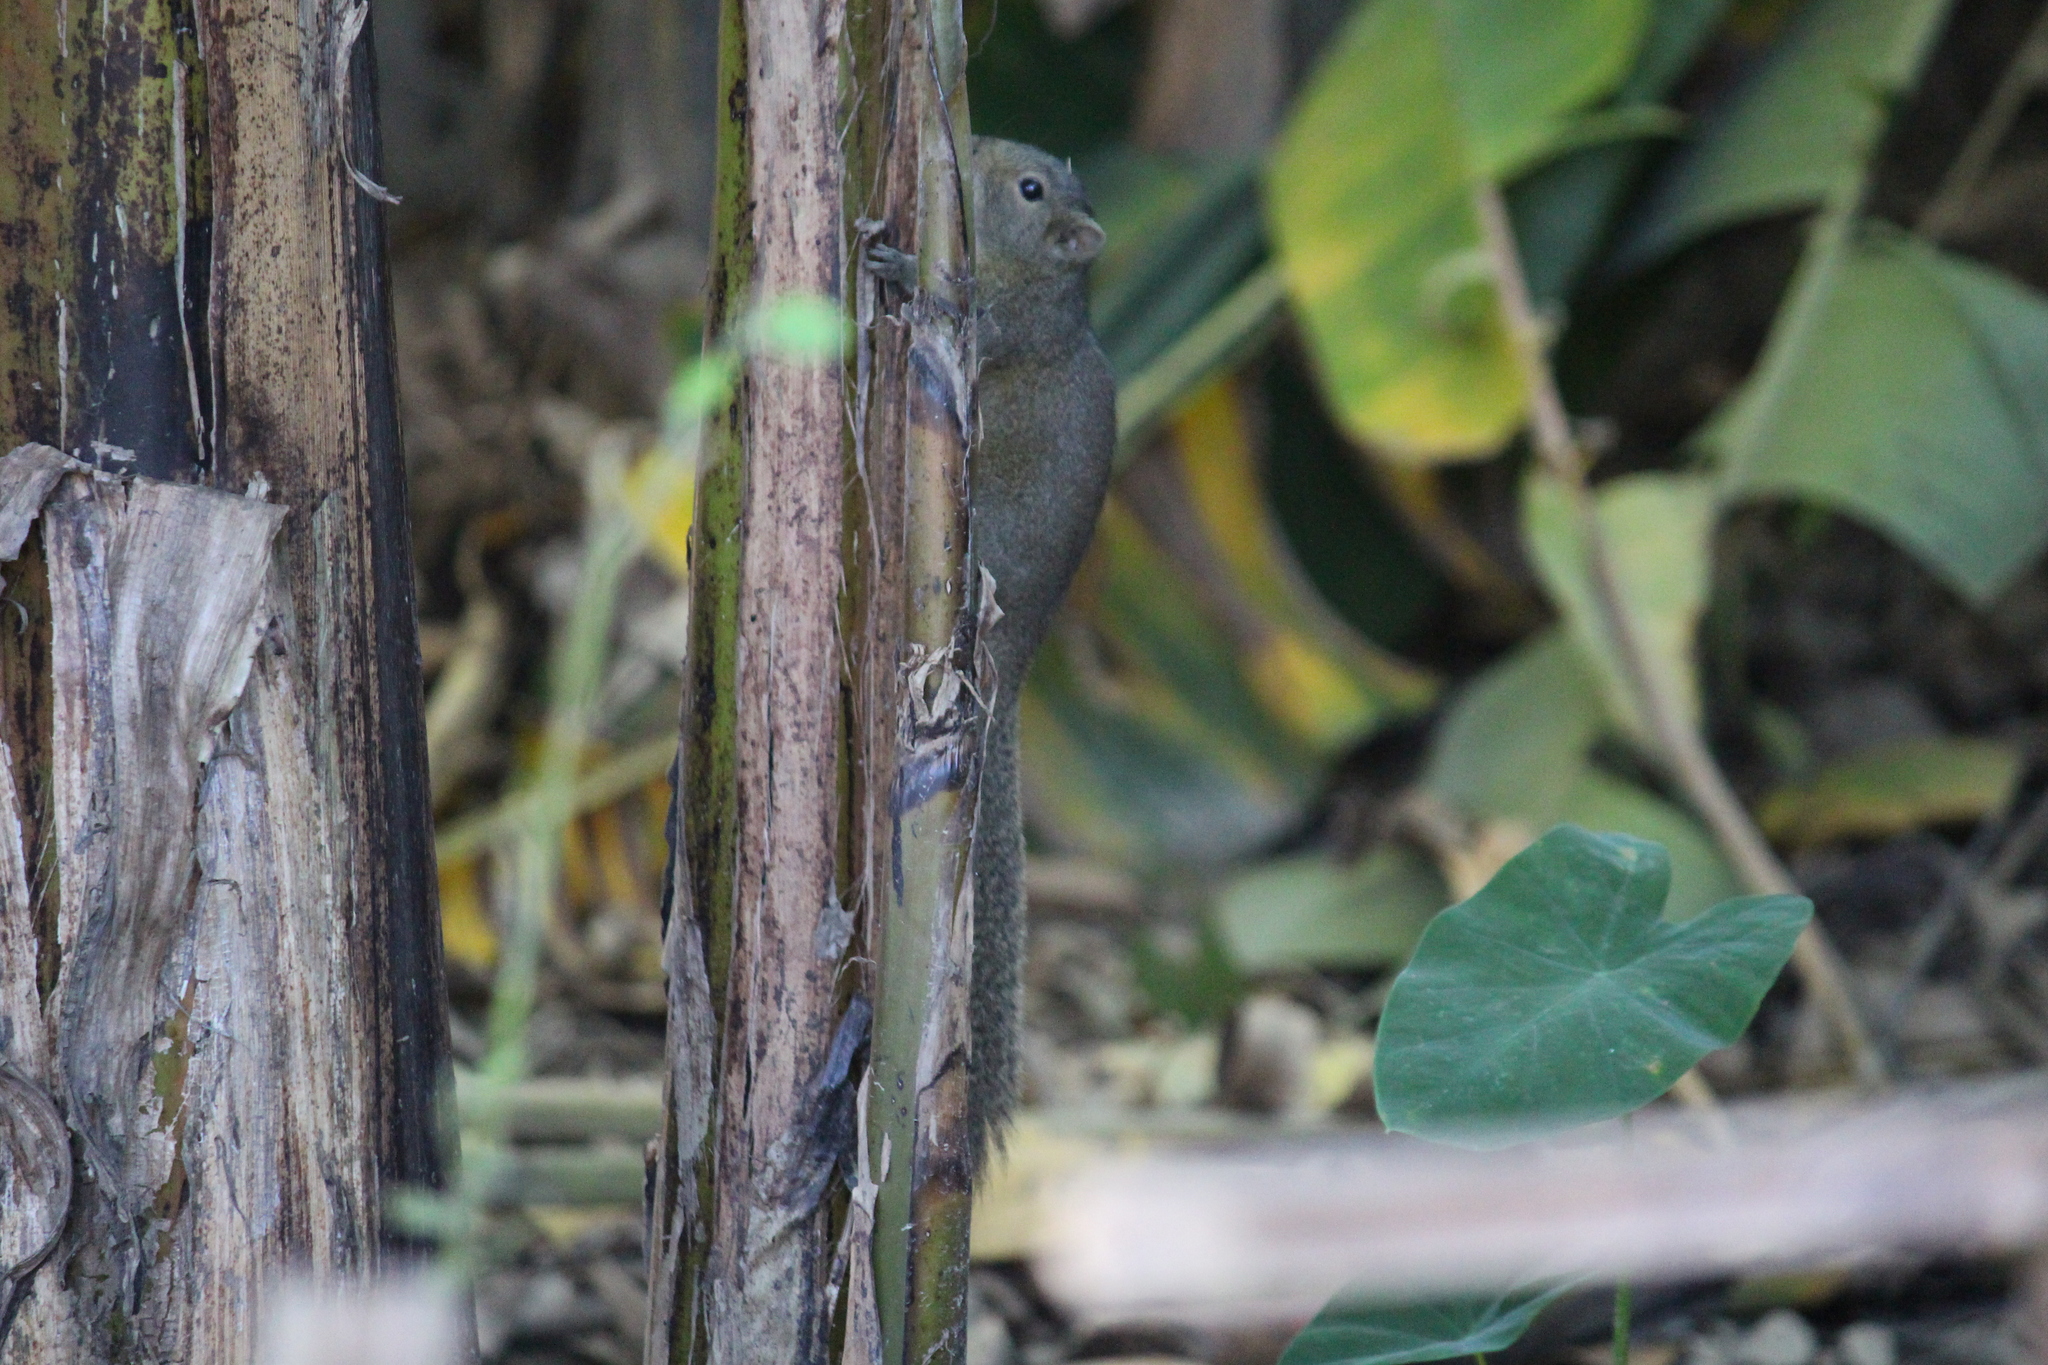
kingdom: Animalia
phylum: Chordata
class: Mammalia
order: Rodentia
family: Sciuridae
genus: Callosciurus
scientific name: Callosciurus pygerythrus
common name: Irrawaddy squirrel
